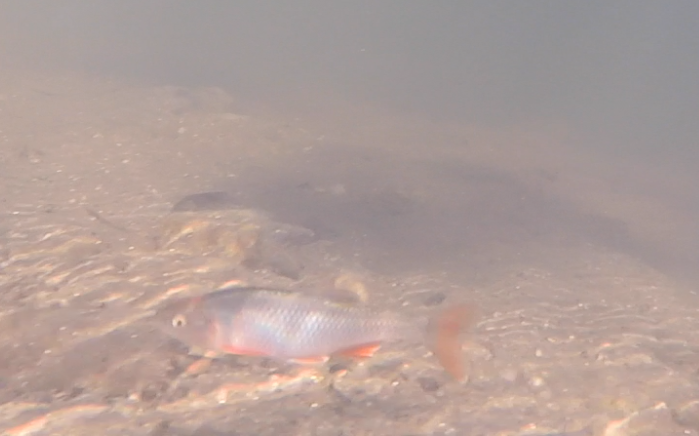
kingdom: Animalia
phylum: Chordata
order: Cypriniformes
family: Cyprinidae
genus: Cyprinella
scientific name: Cyprinella lutrensis
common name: Red shiner
